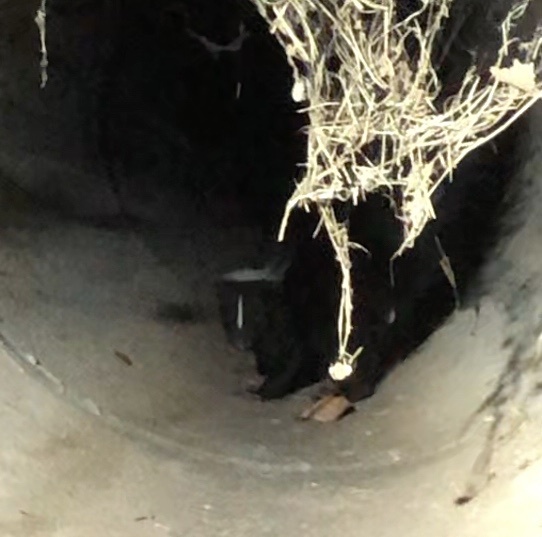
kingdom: Animalia
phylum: Chordata
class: Mammalia
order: Carnivora
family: Mephitidae
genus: Mephitis
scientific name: Mephitis mephitis
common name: Striped skunk
